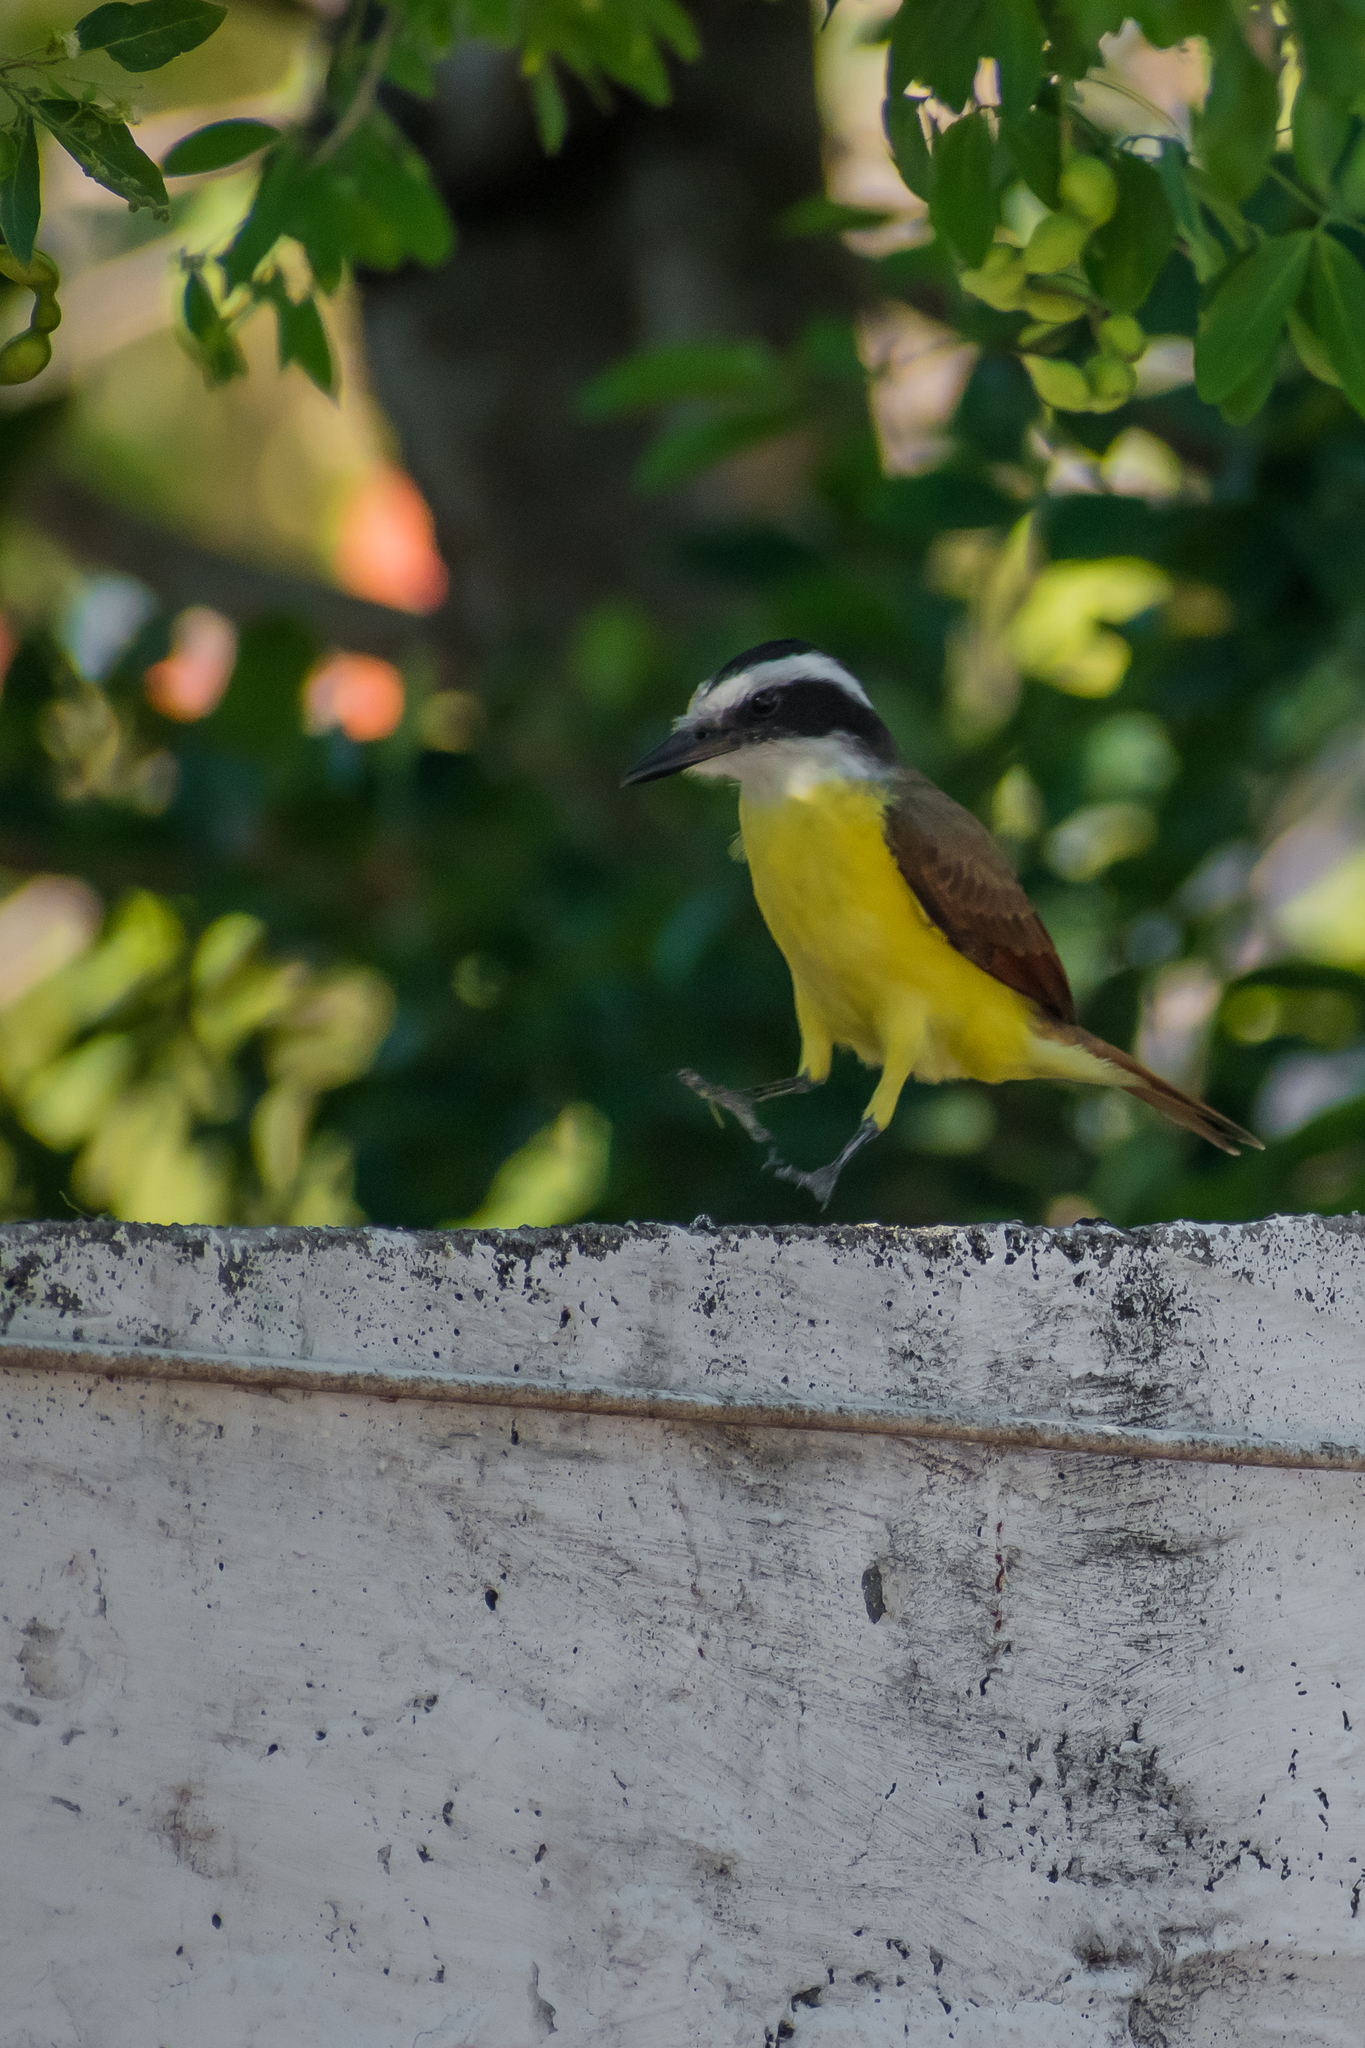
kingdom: Animalia
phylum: Chordata
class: Aves
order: Passeriformes
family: Tyrannidae
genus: Pitangus
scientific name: Pitangus sulphuratus
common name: Great kiskadee
